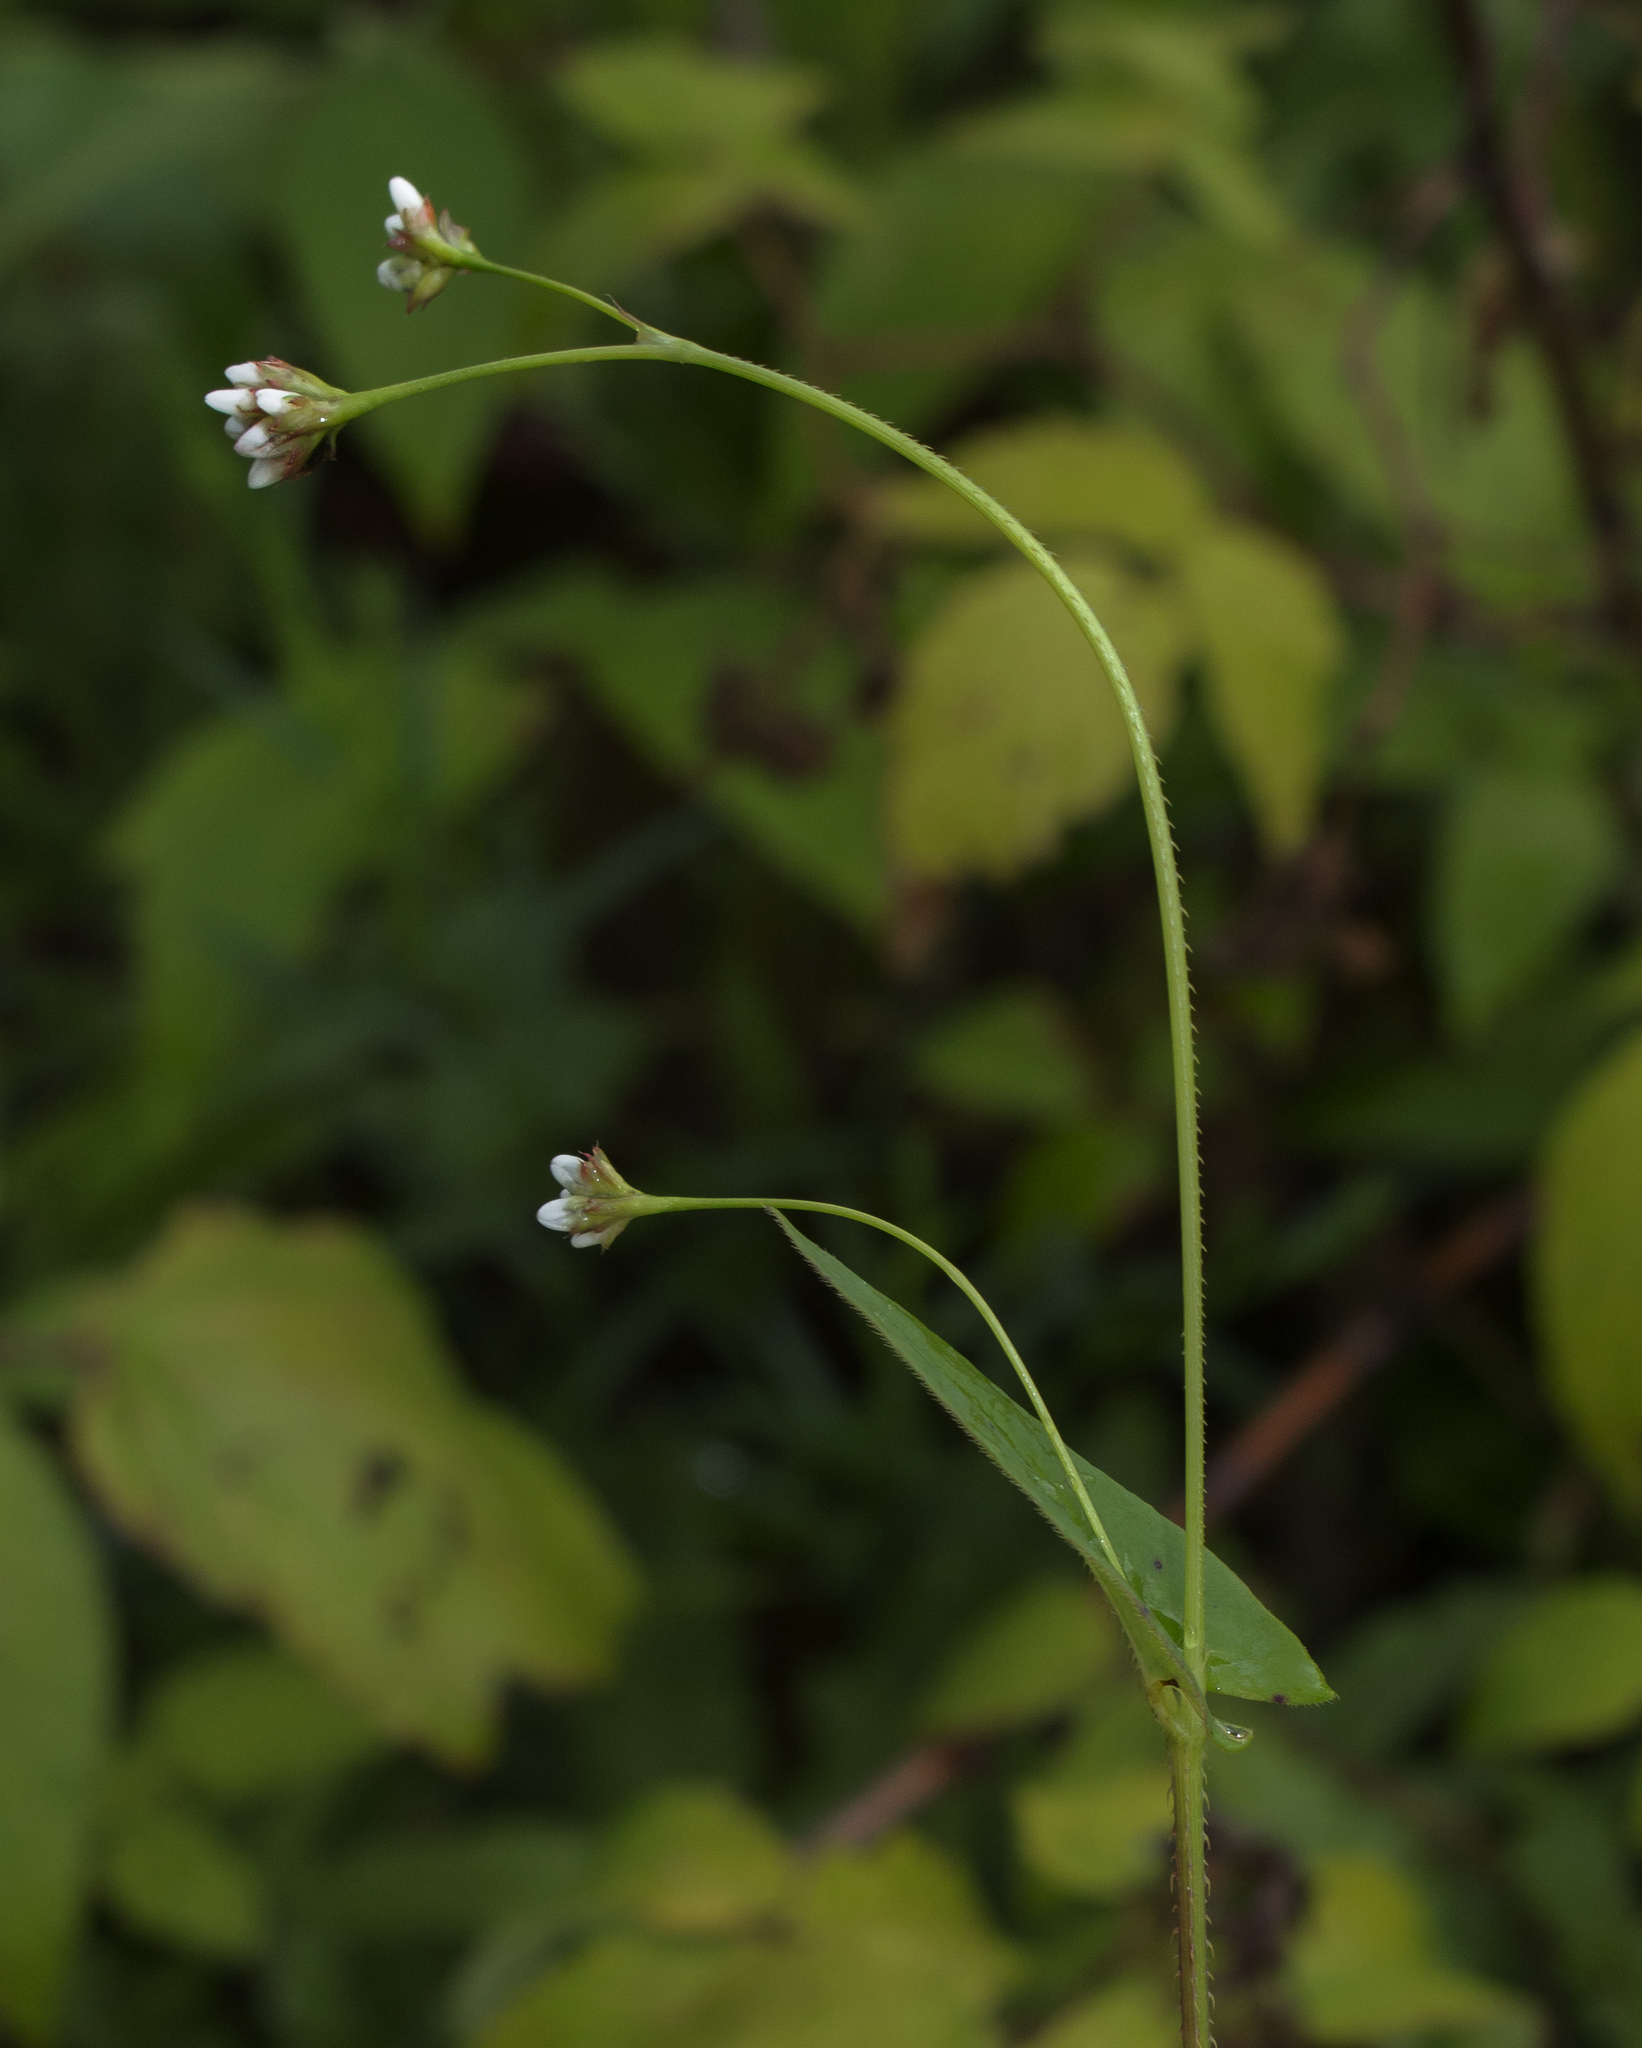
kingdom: Plantae
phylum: Tracheophyta
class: Magnoliopsida
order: Caryophyllales
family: Polygonaceae
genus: Persicaria
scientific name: Persicaria sagittata
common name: American tearthumb
